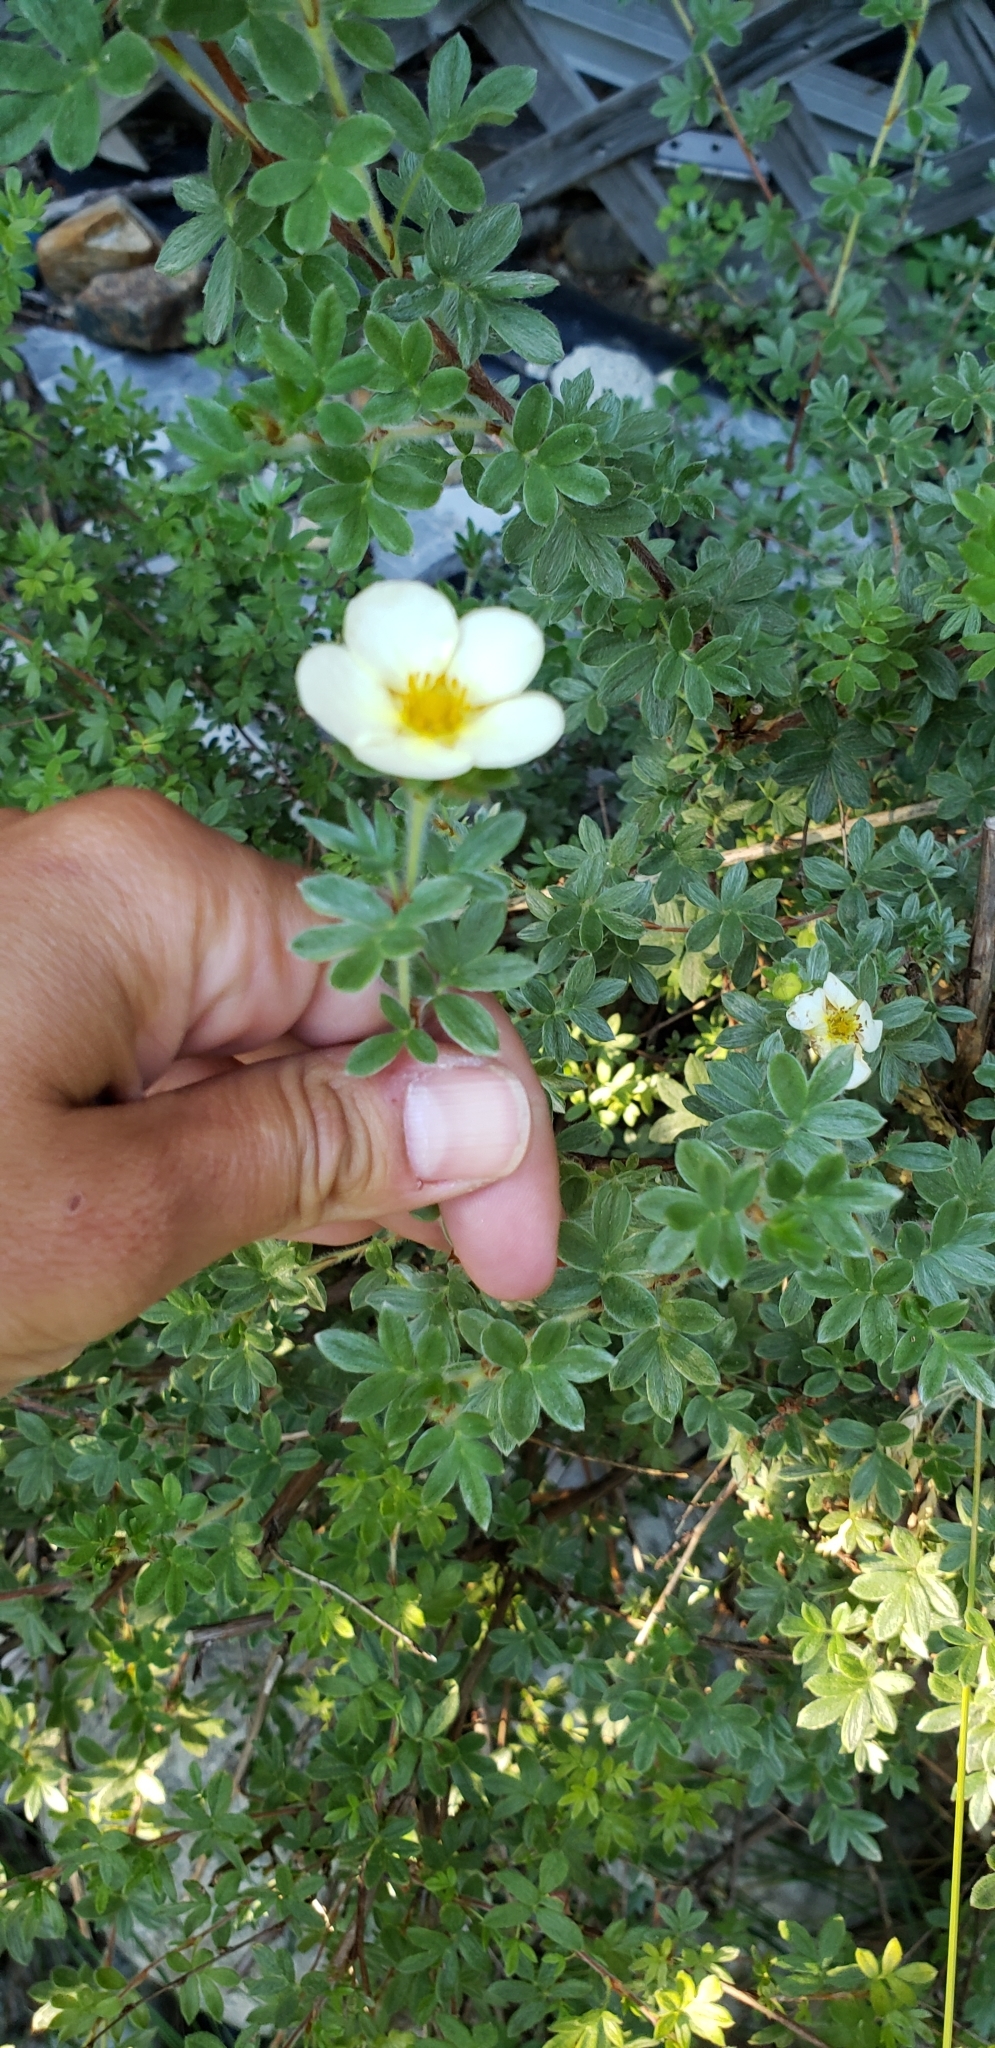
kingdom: Plantae
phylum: Tracheophyta
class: Magnoliopsida
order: Rosales
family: Rosaceae
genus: Dasiphora
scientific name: Dasiphora fruticosa
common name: Shrubby cinquefoil
